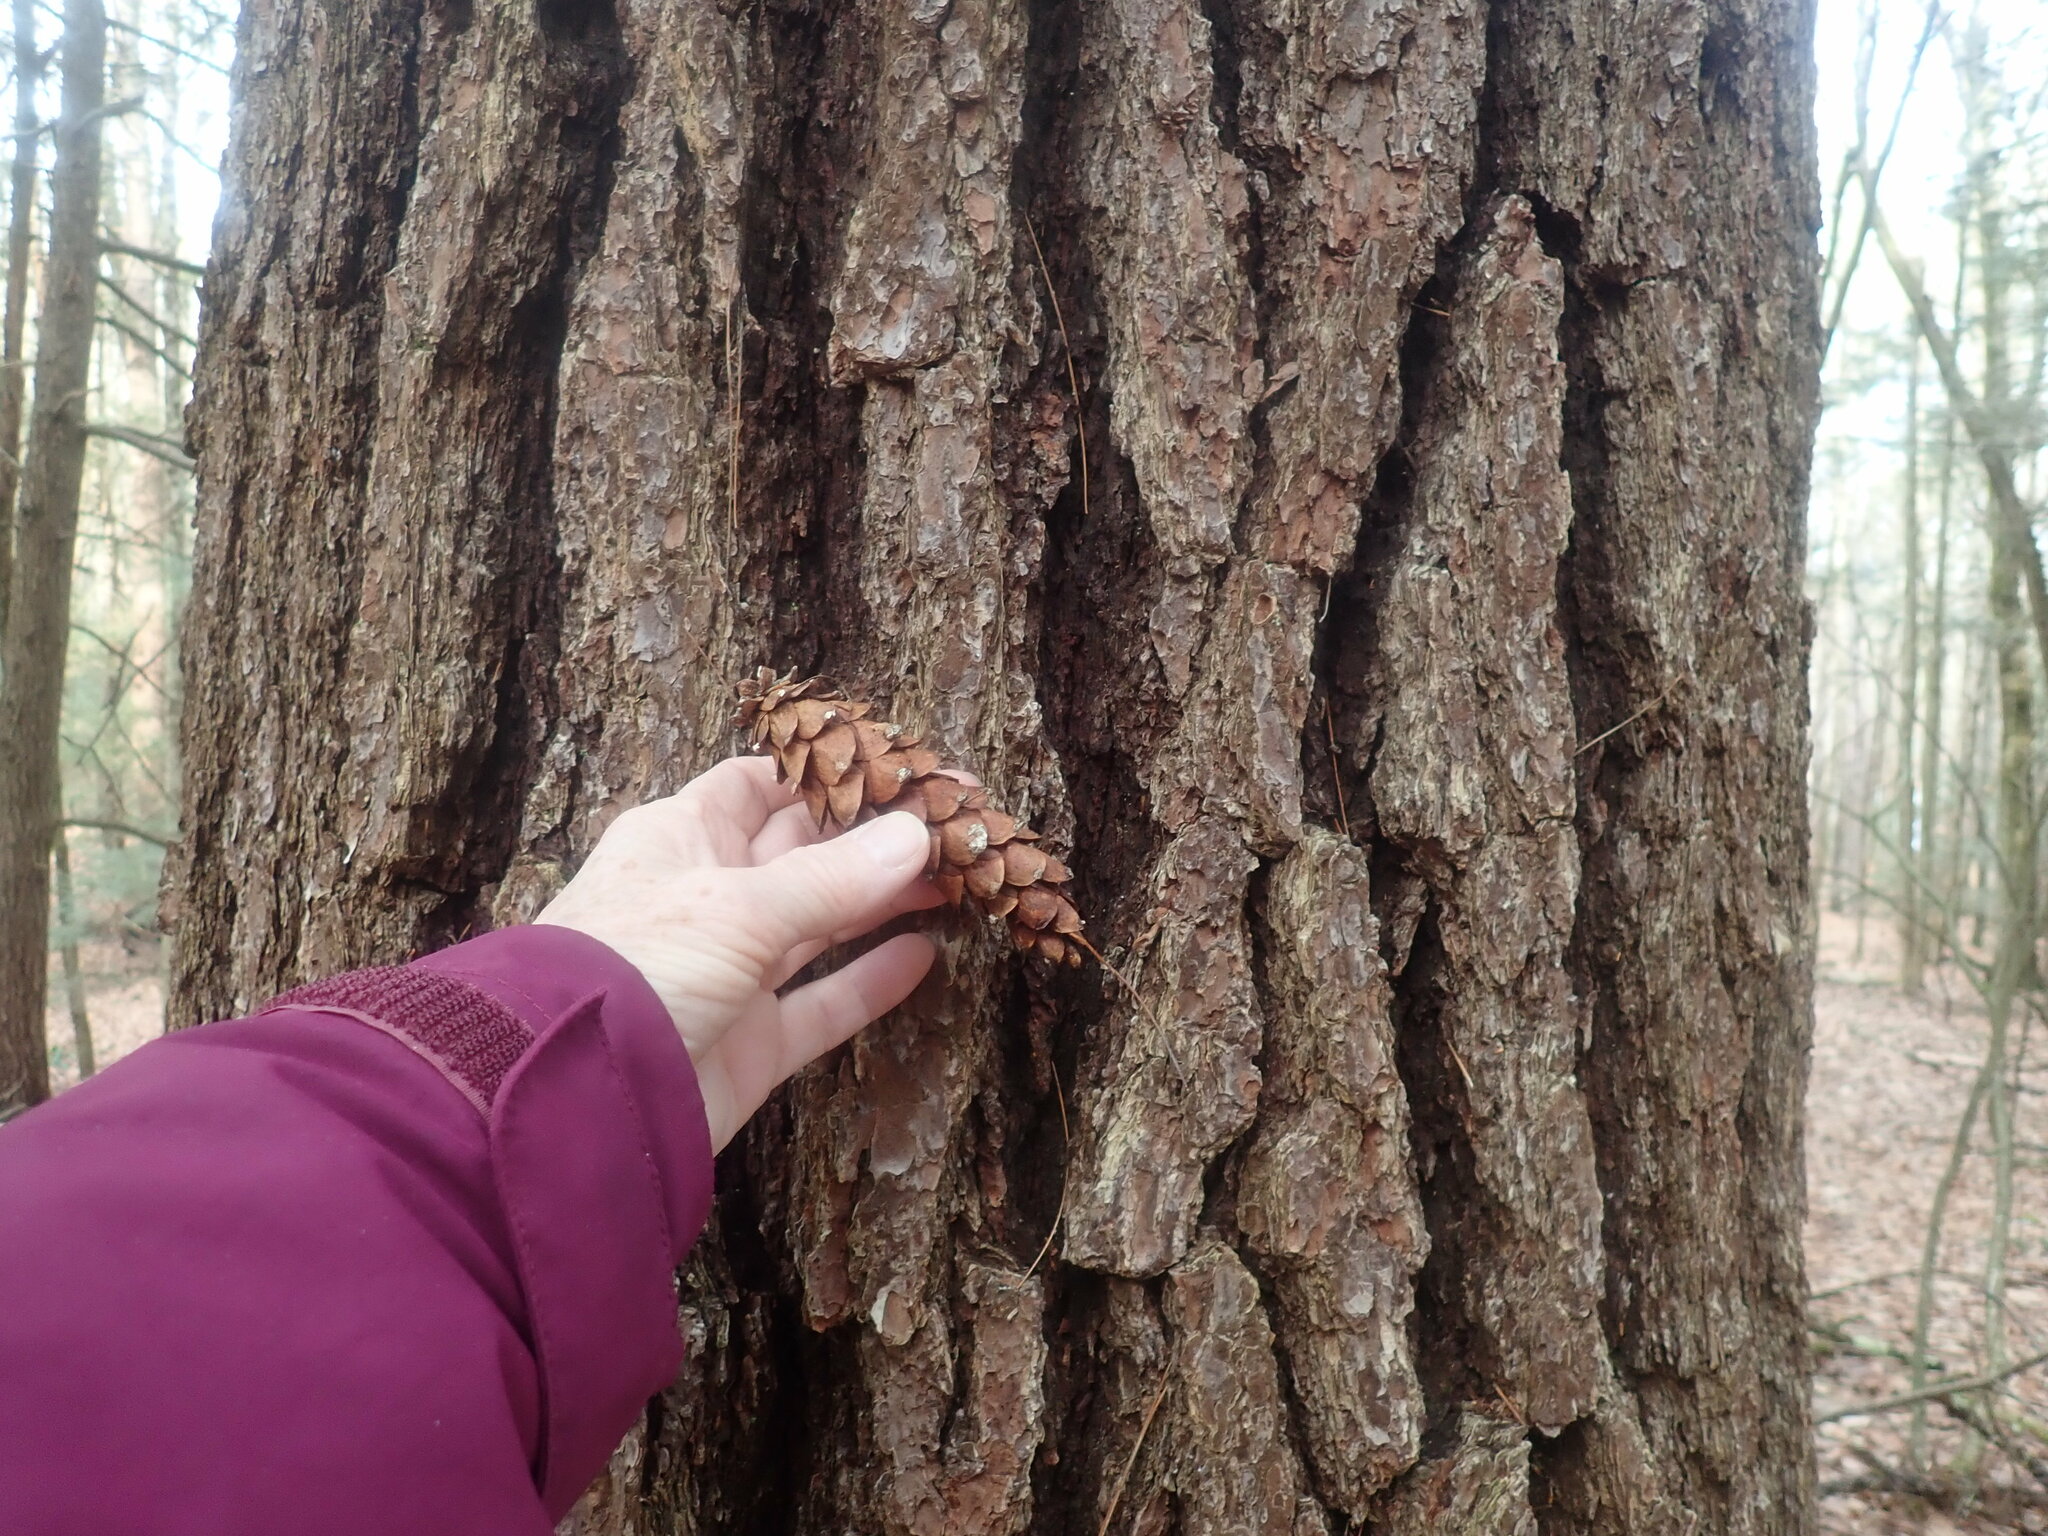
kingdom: Plantae
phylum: Tracheophyta
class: Pinopsida
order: Pinales
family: Pinaceae
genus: Pinus
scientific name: Pinus strobus
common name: Weymouth pine
